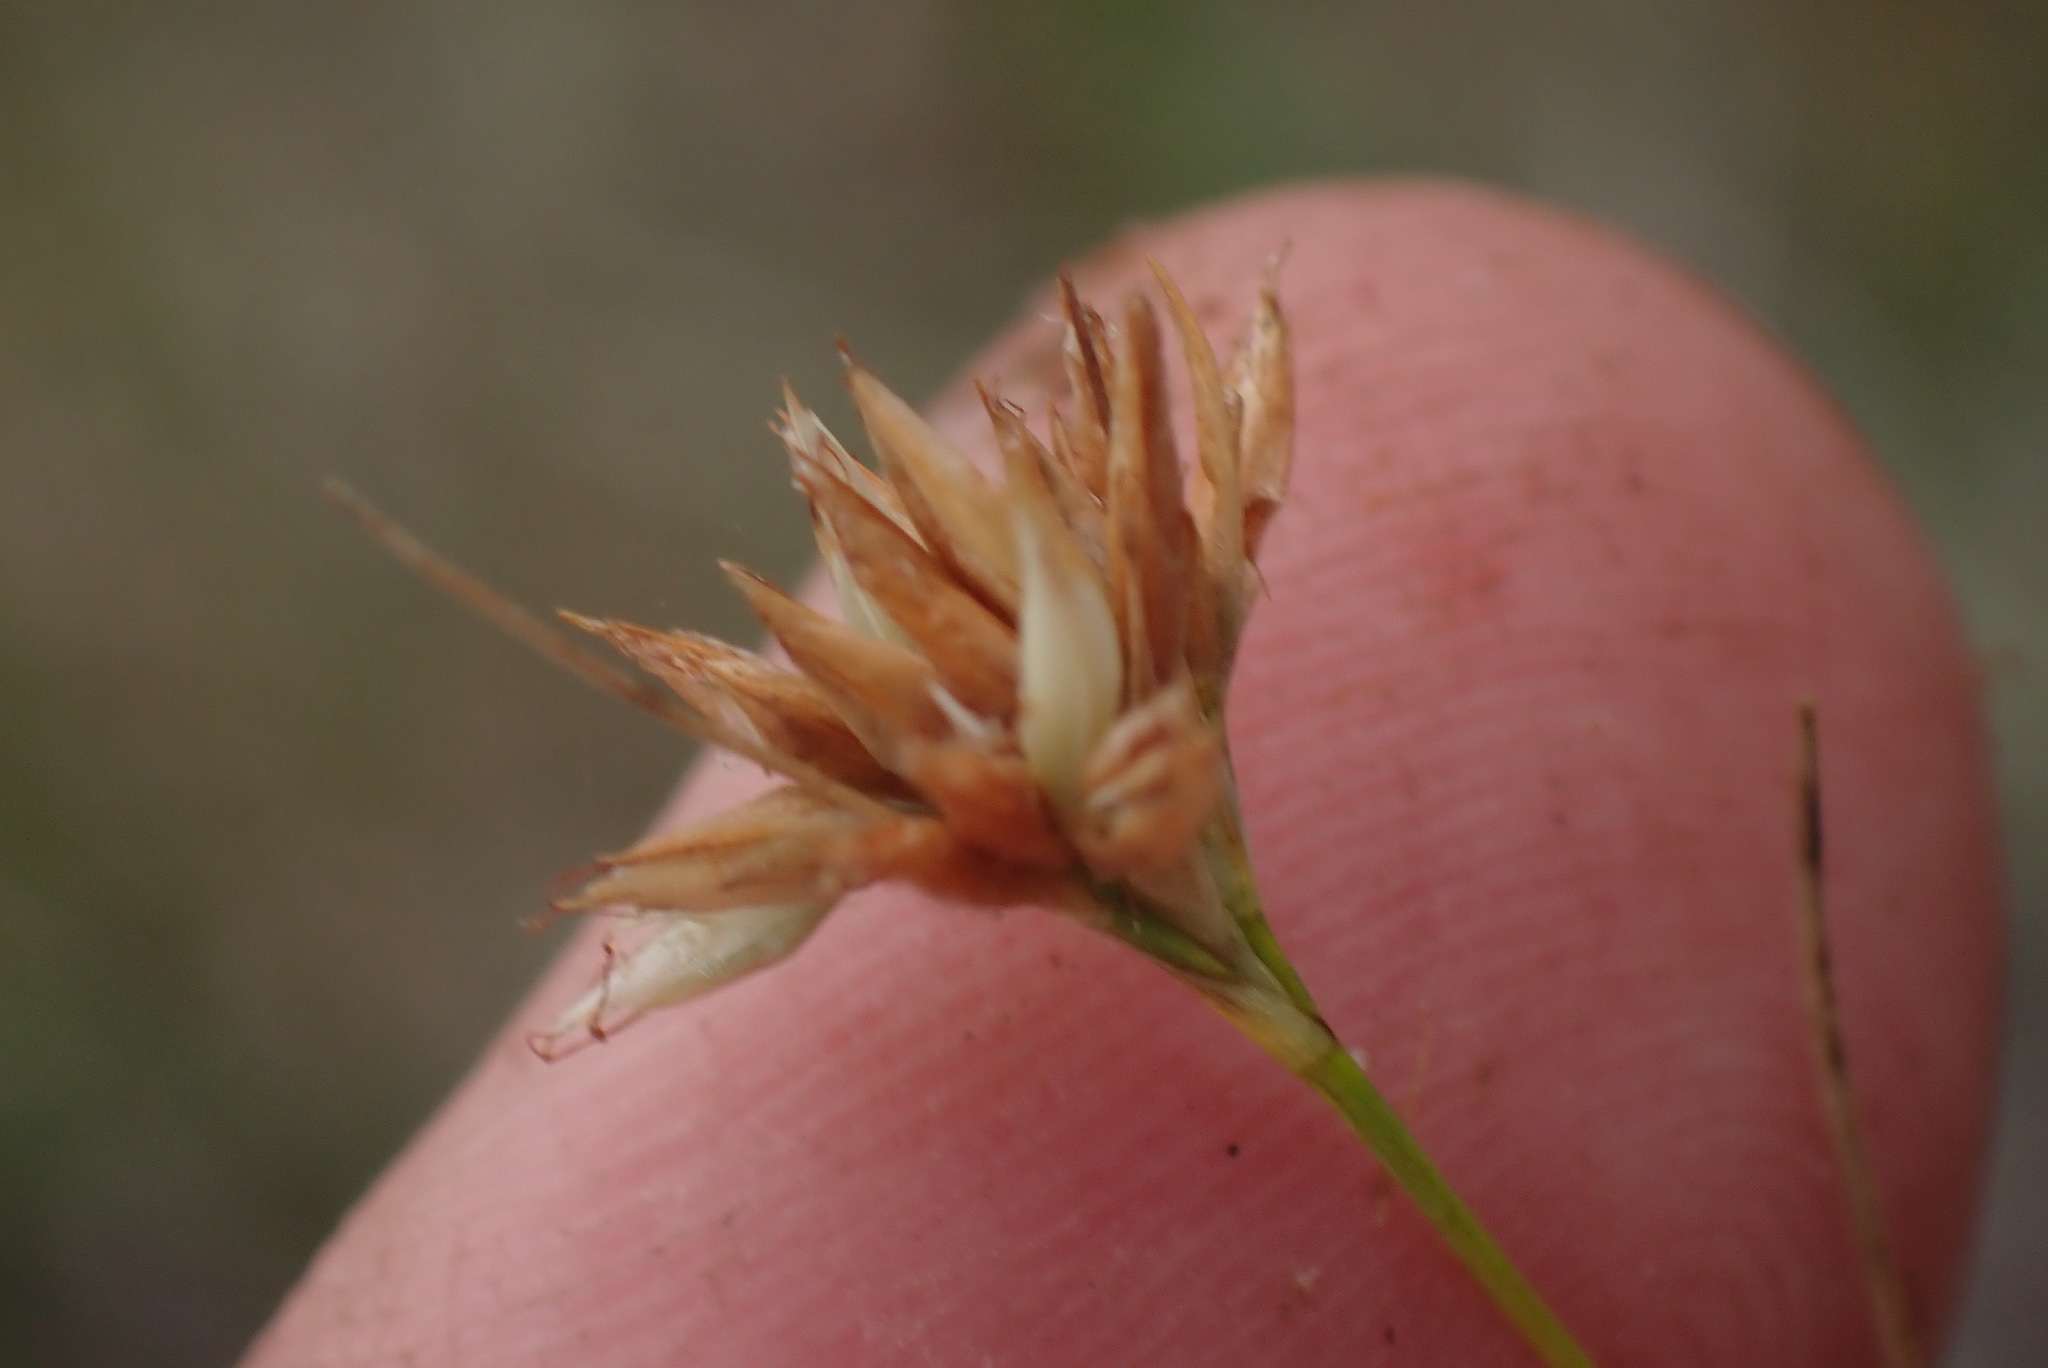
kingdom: Plantae
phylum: Tracheophyta
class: Liliopsida
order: Poales
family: Cyperaceae
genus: Rhynchospora
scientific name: Rhynchospora alba
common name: White beak-sedge
